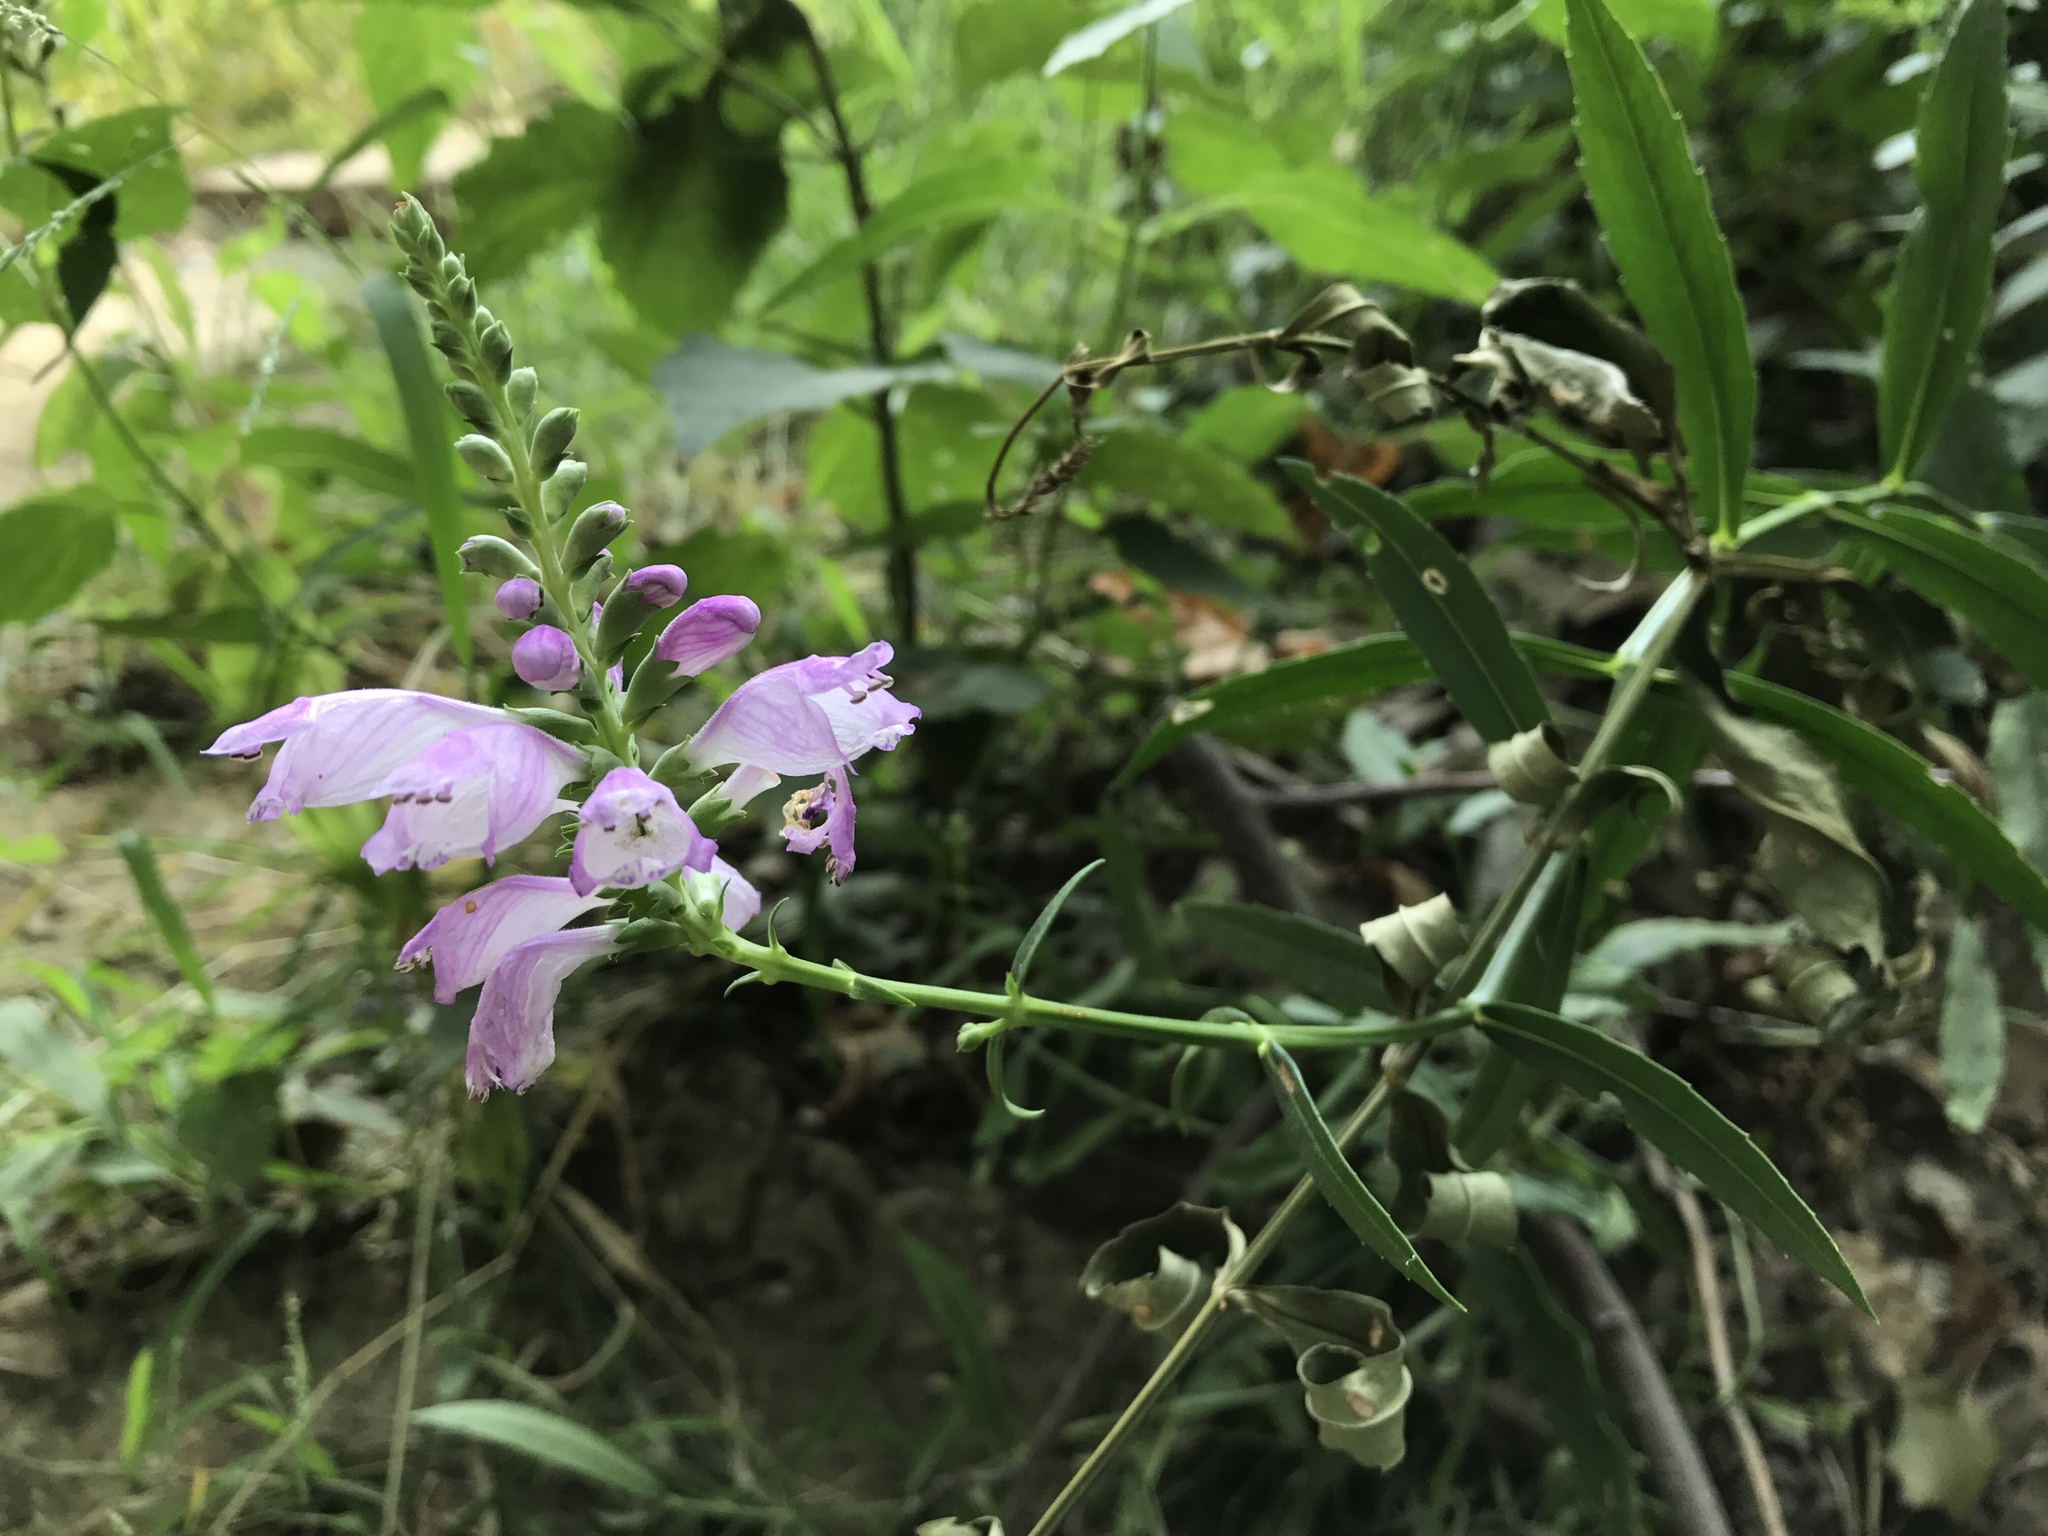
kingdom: Plantae
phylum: Tracheophyta
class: Magnoliopsida
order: Lamiales
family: Lamiaceae
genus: Physostegia
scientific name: Physostegia virginiana
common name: Obedient-plant
